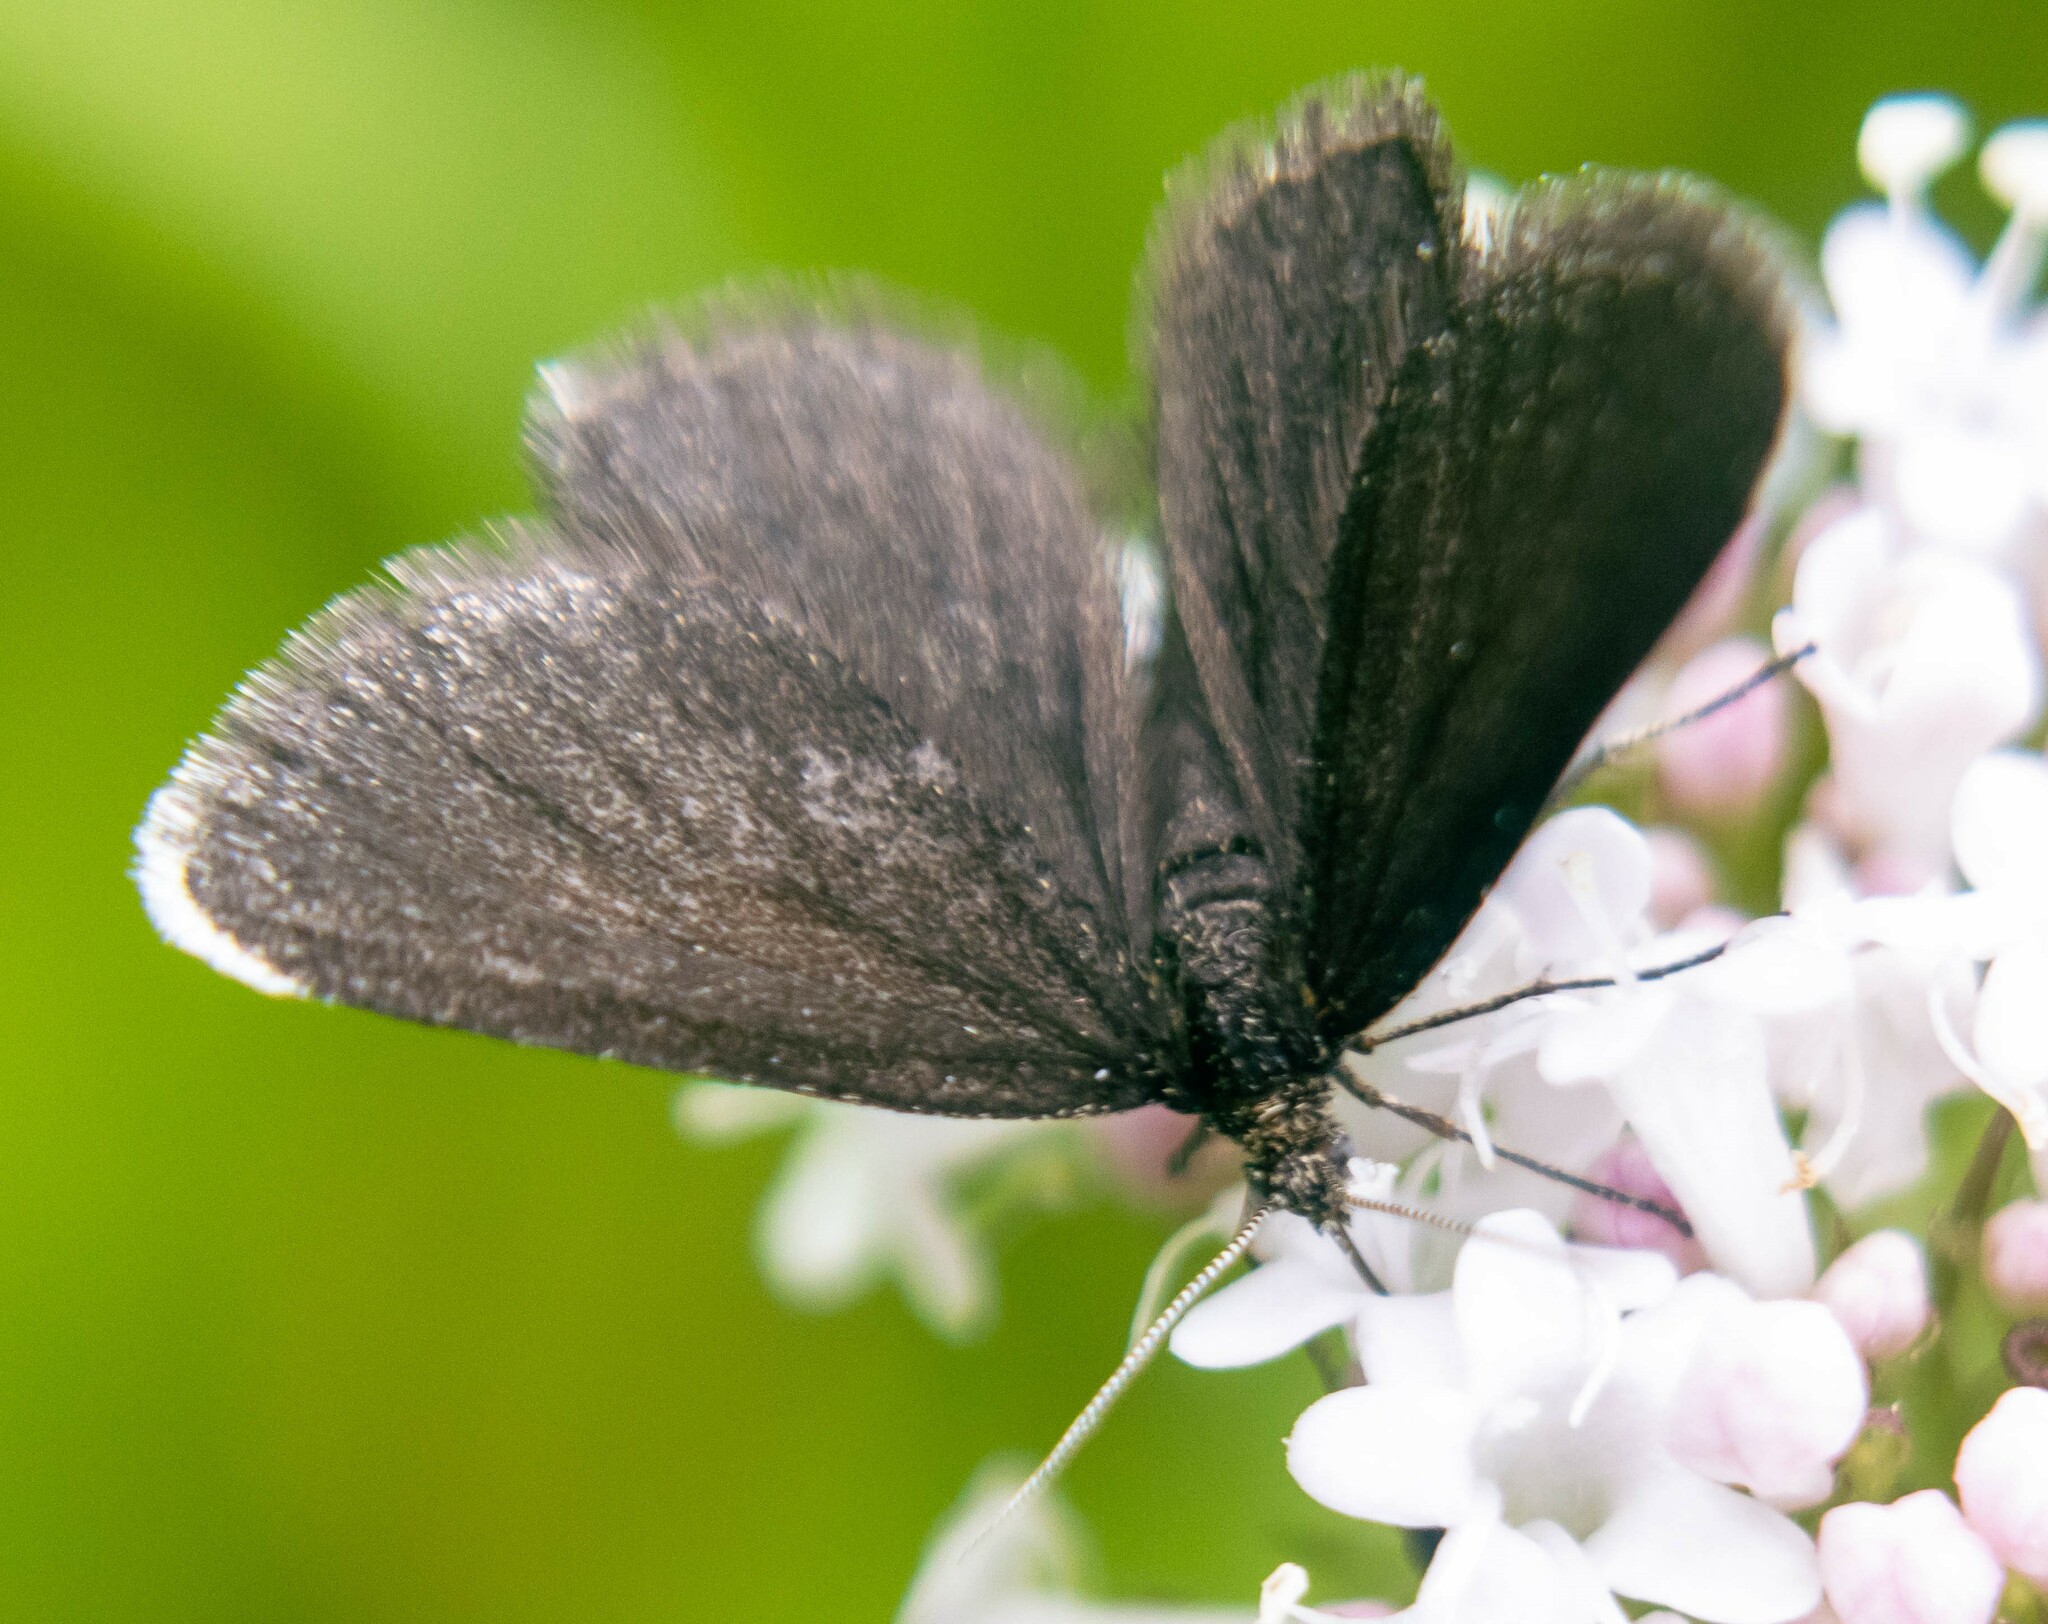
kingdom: Animalia
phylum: Arthropoda
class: Insecta
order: Lepidoptera
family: Geometridae
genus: Odezia
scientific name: Odezia atrata
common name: Chimney sweeper
